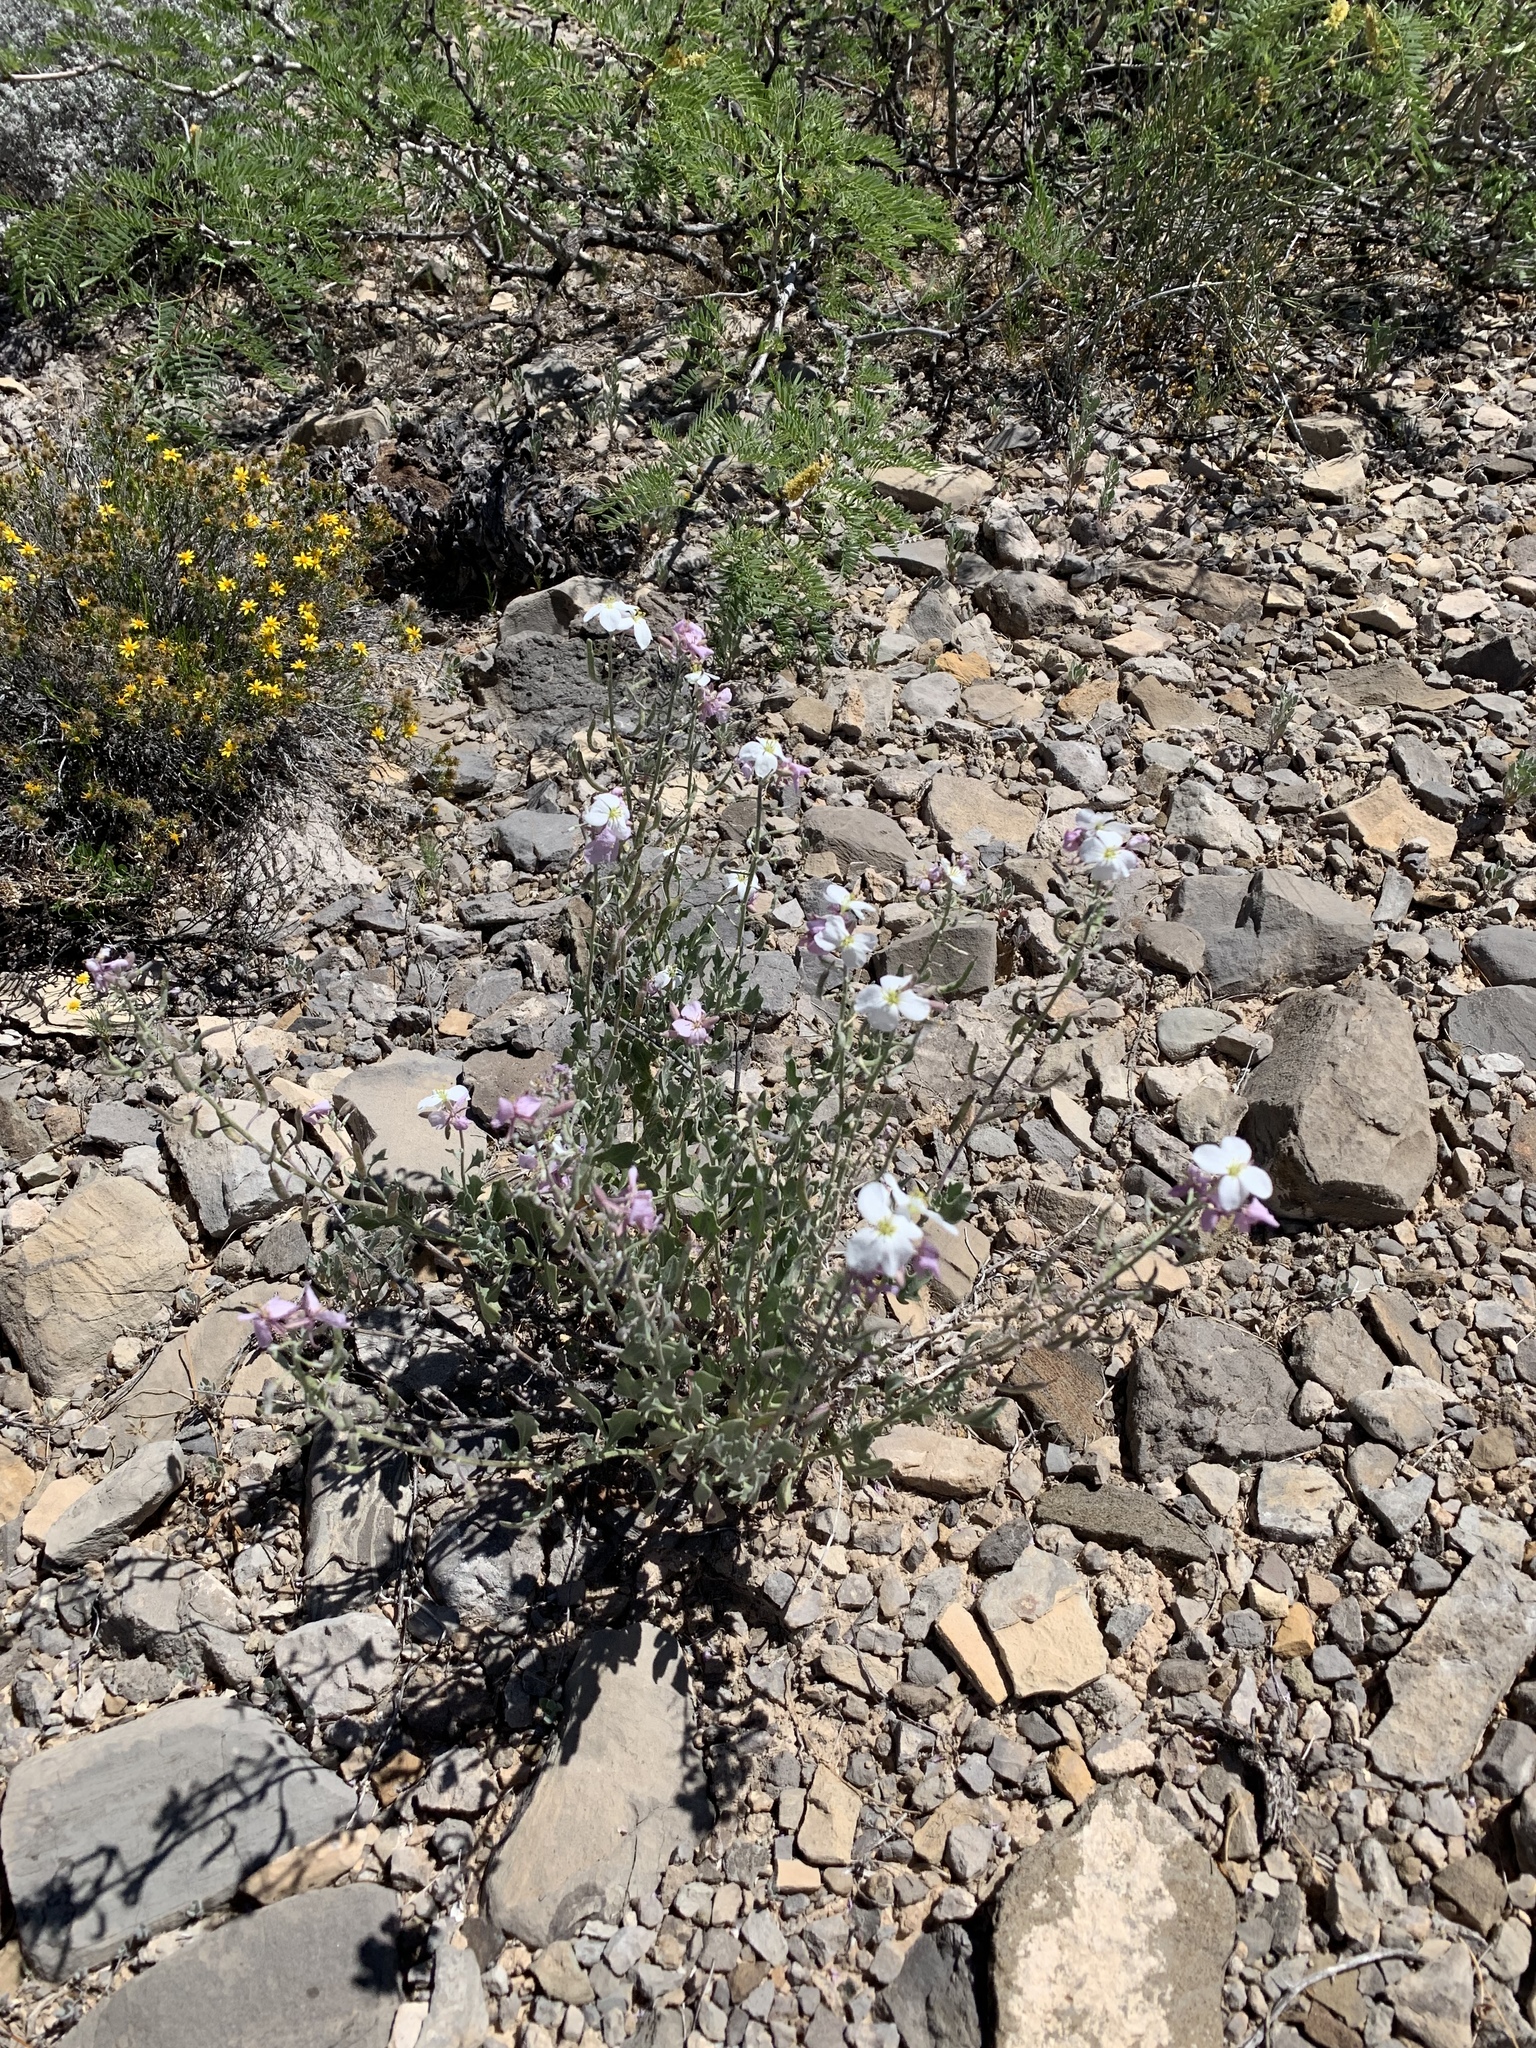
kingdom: Plantae
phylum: Tracheophyta
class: Magnoliopsida
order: Brassicales
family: Brassicaceae
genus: Nerisyrenia
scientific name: Nerisyrenia camporum
